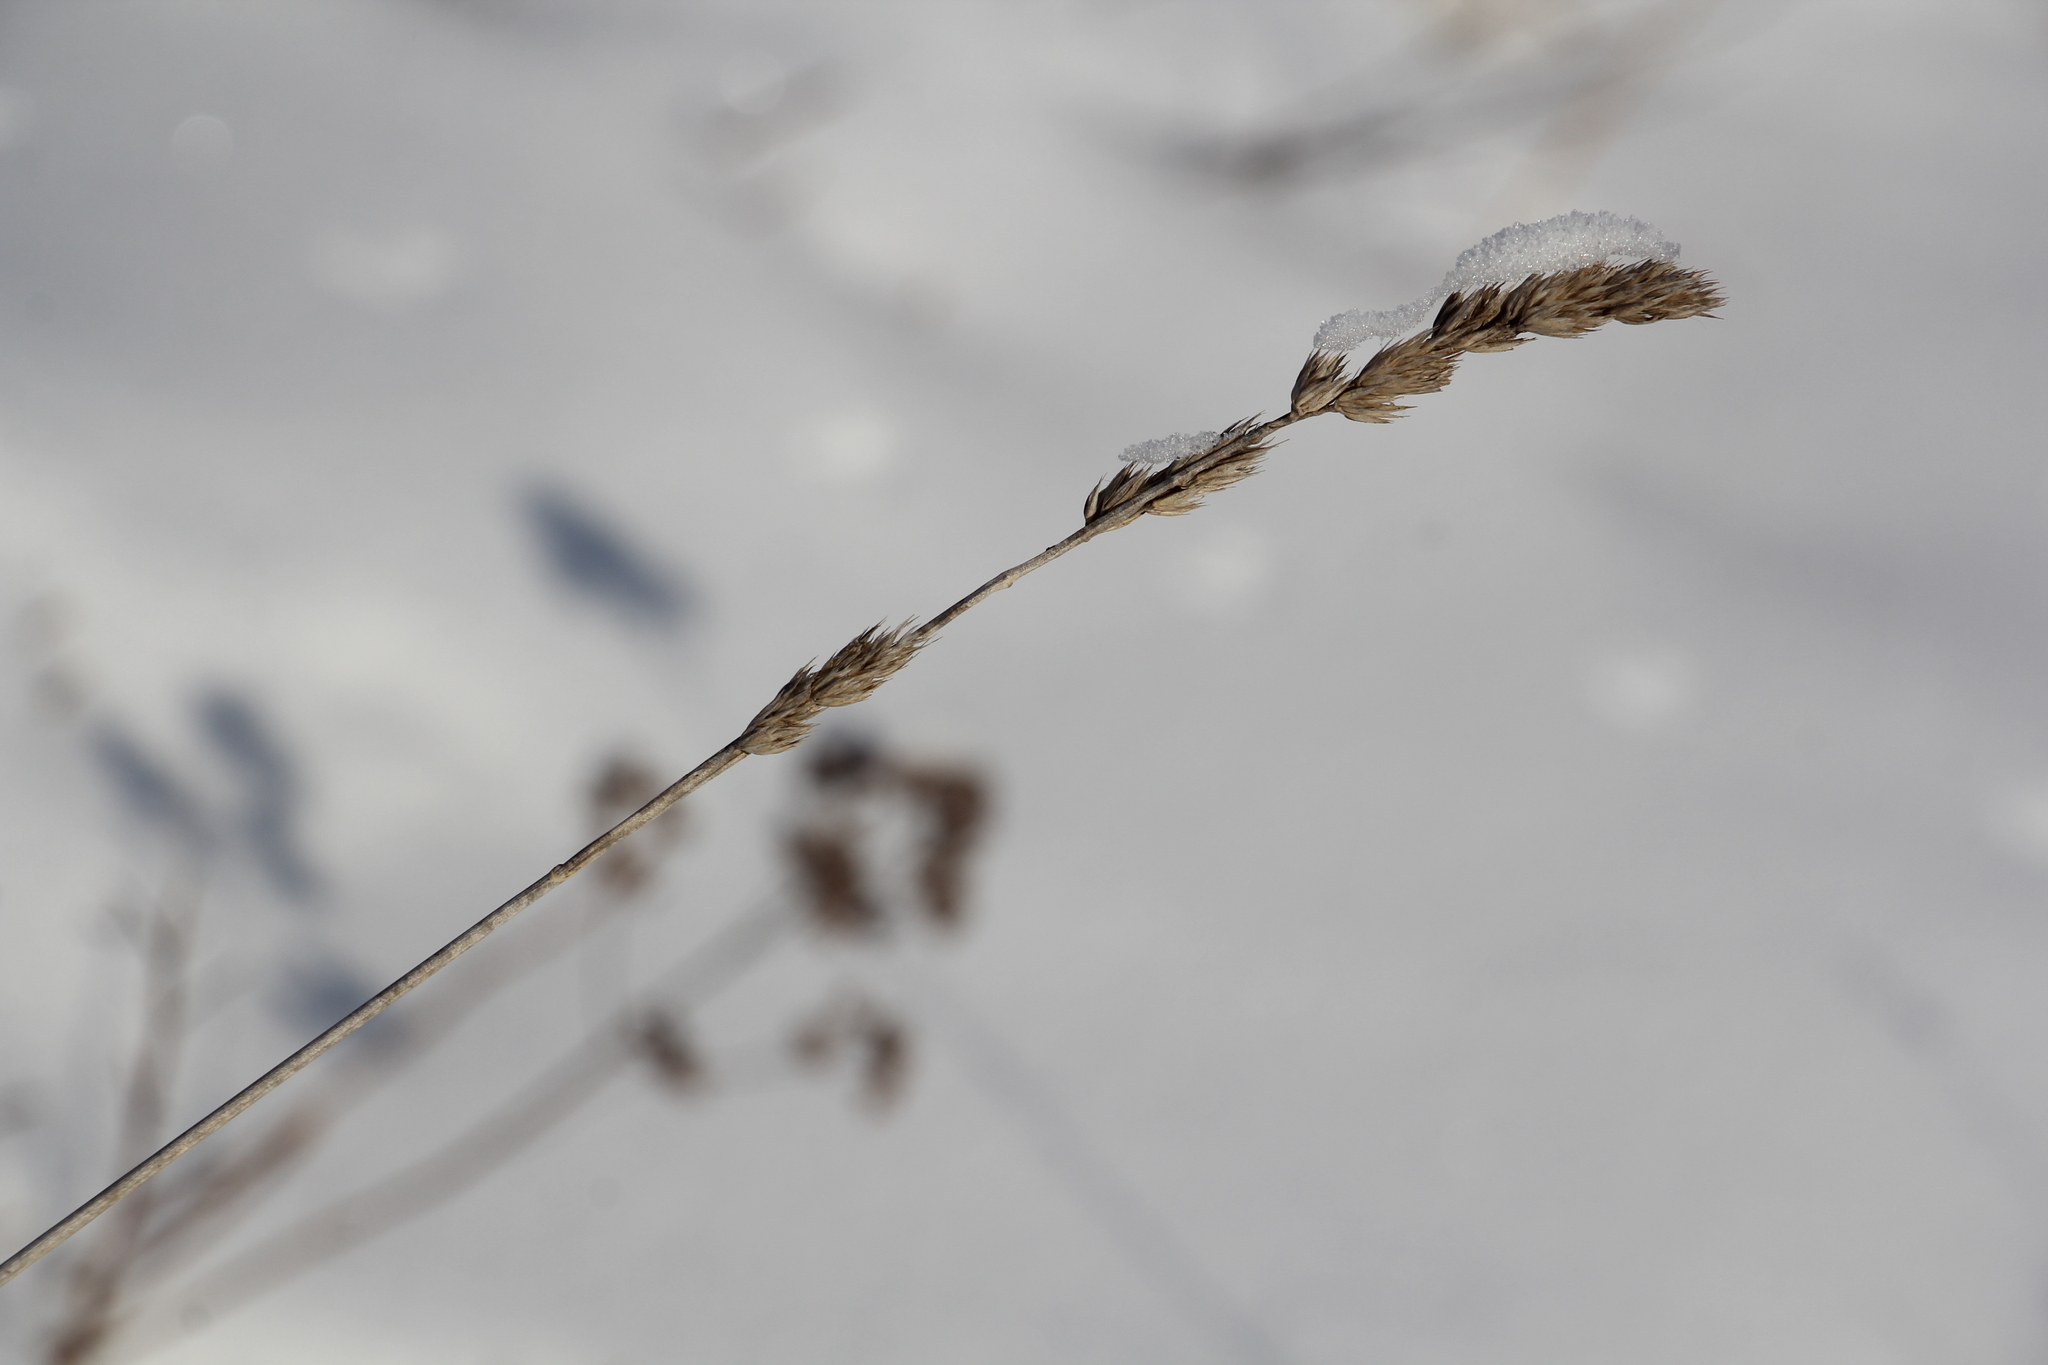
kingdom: Plantae
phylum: Tracheophyta
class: Liliopsida
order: Poales
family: Poaceae
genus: Dactylis
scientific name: Dactylis glomerata
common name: Orchardgrass
